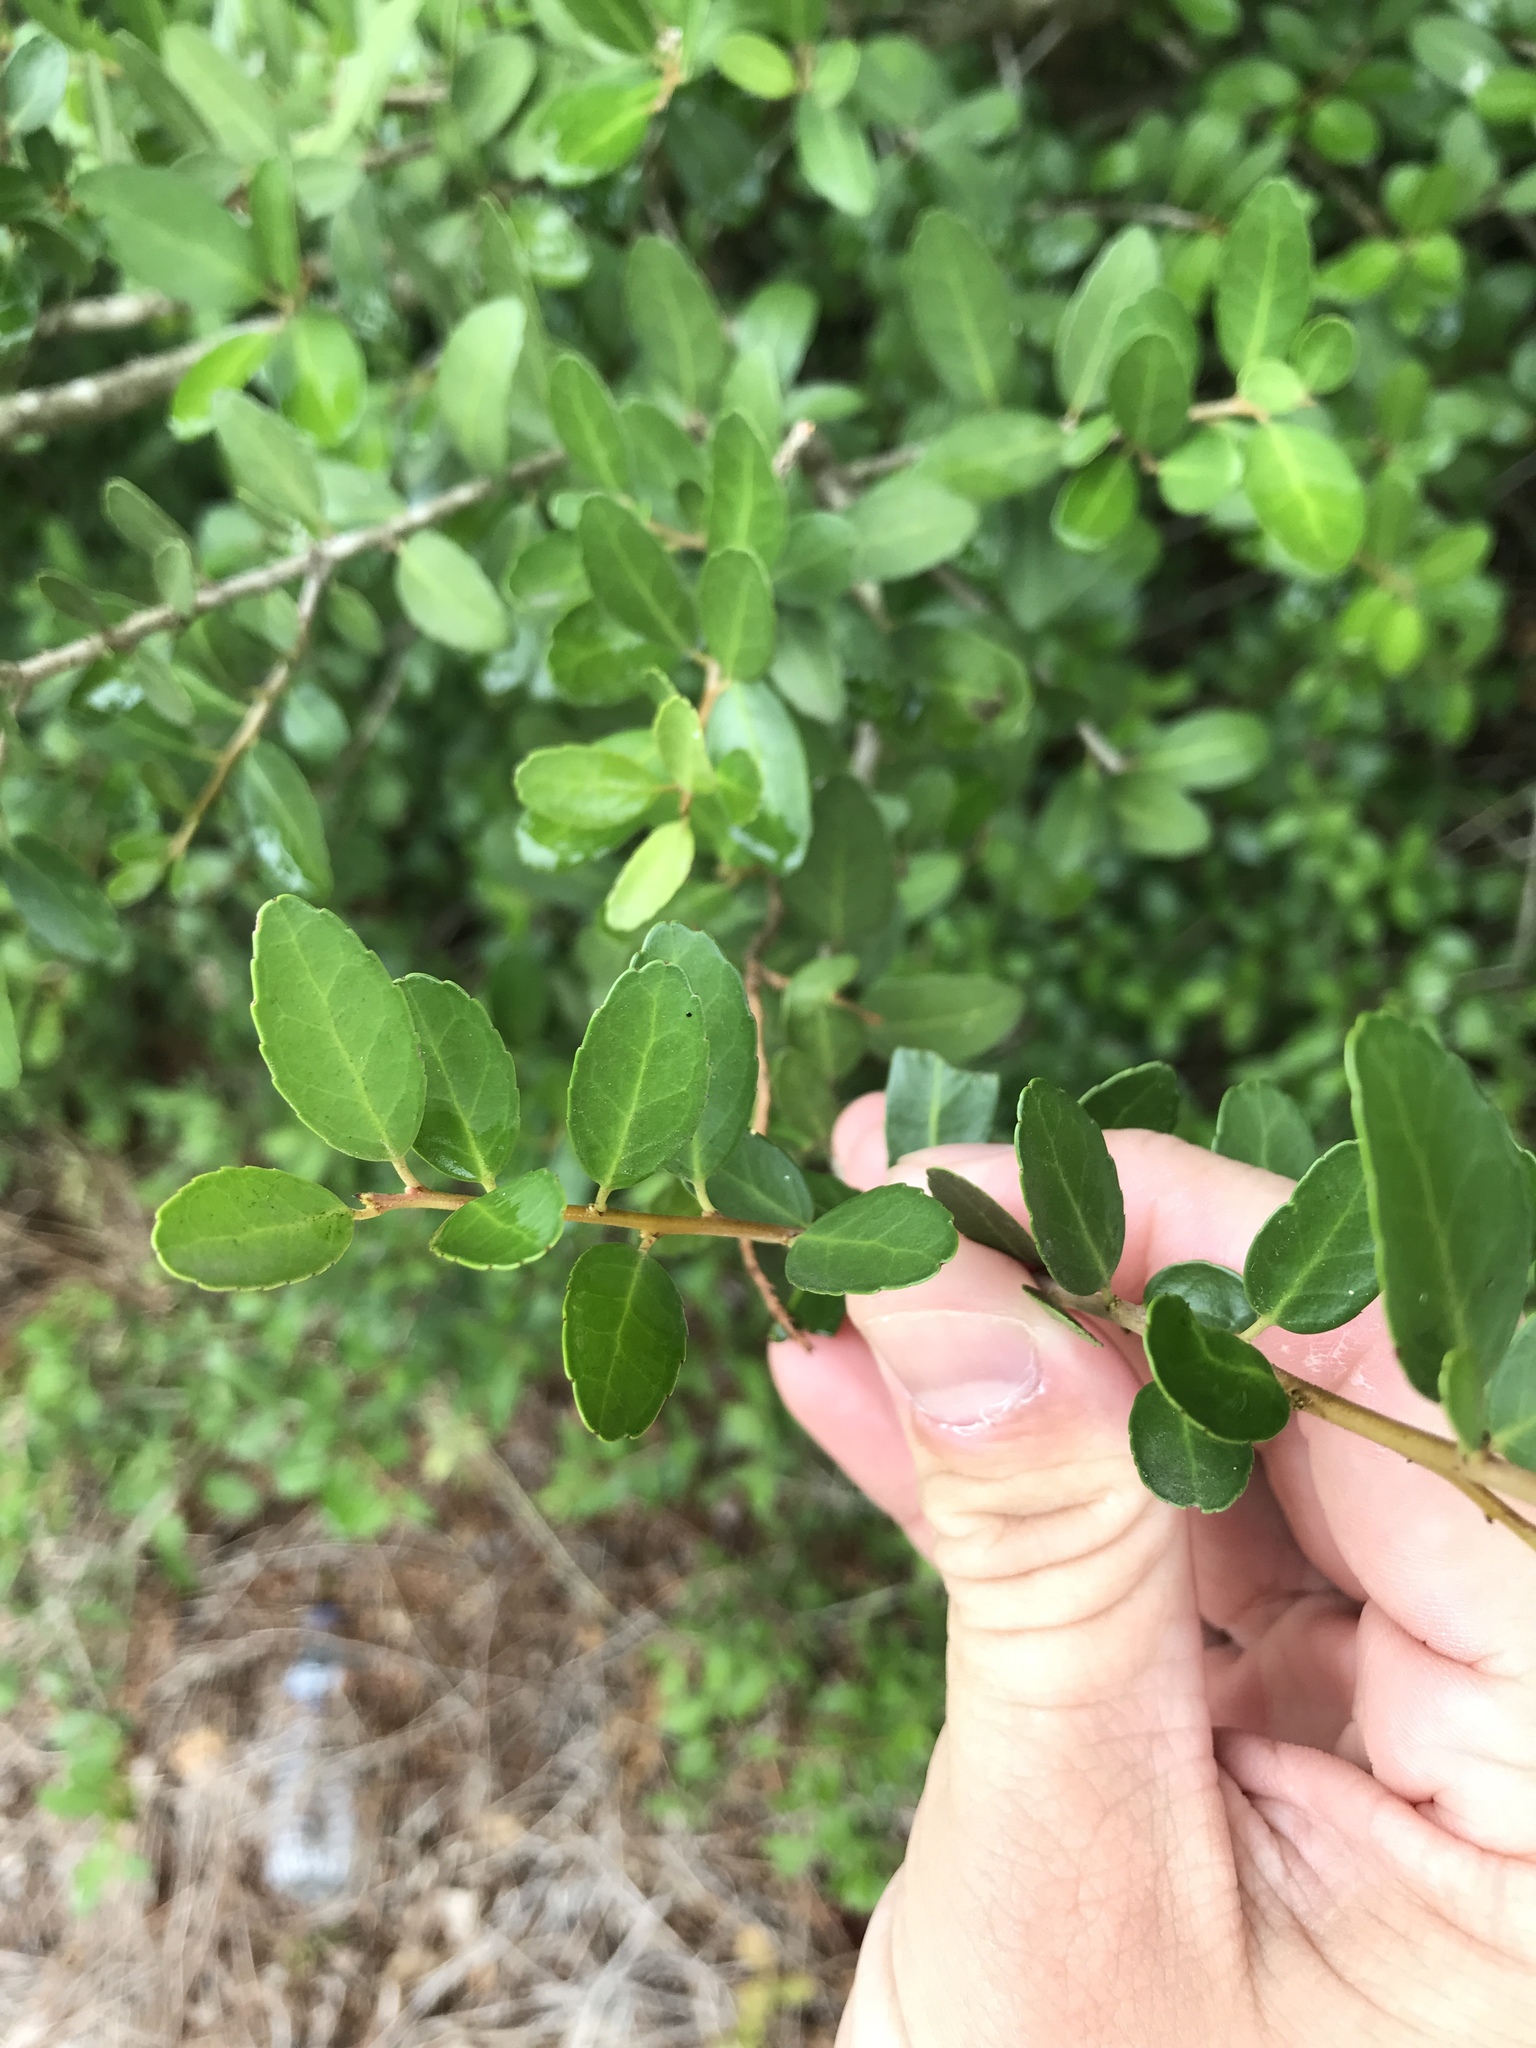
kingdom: Plantae
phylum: Tracheophyta
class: Magnoliopsida
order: Aquifoliales
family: Aquifoliaceae
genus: Ilex
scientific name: Ilex vomitoria
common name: Yaupon holly
